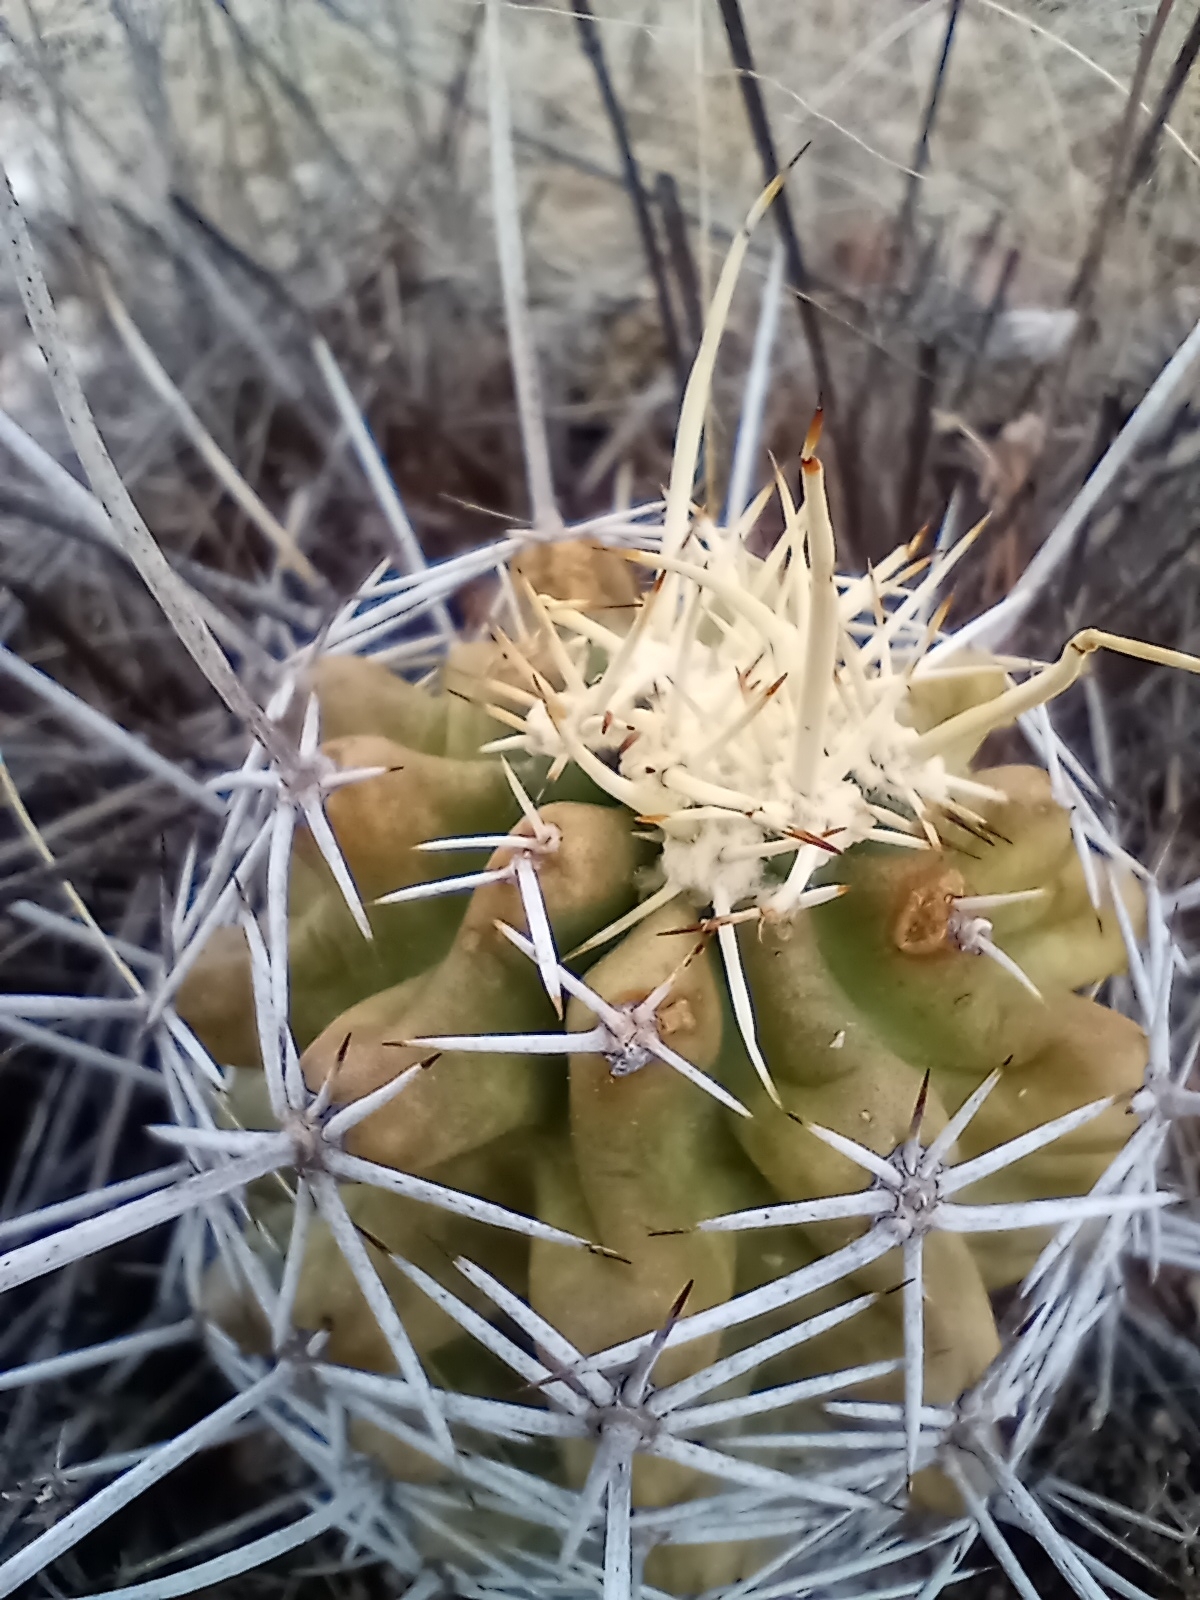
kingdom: Plantae
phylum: Tracheophyta
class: Magnoliopsida
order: Caryophyllales
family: Cactaceae
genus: Echinocereus
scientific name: Echinocereus fendleri
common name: Fendler's hedgehog cactus
